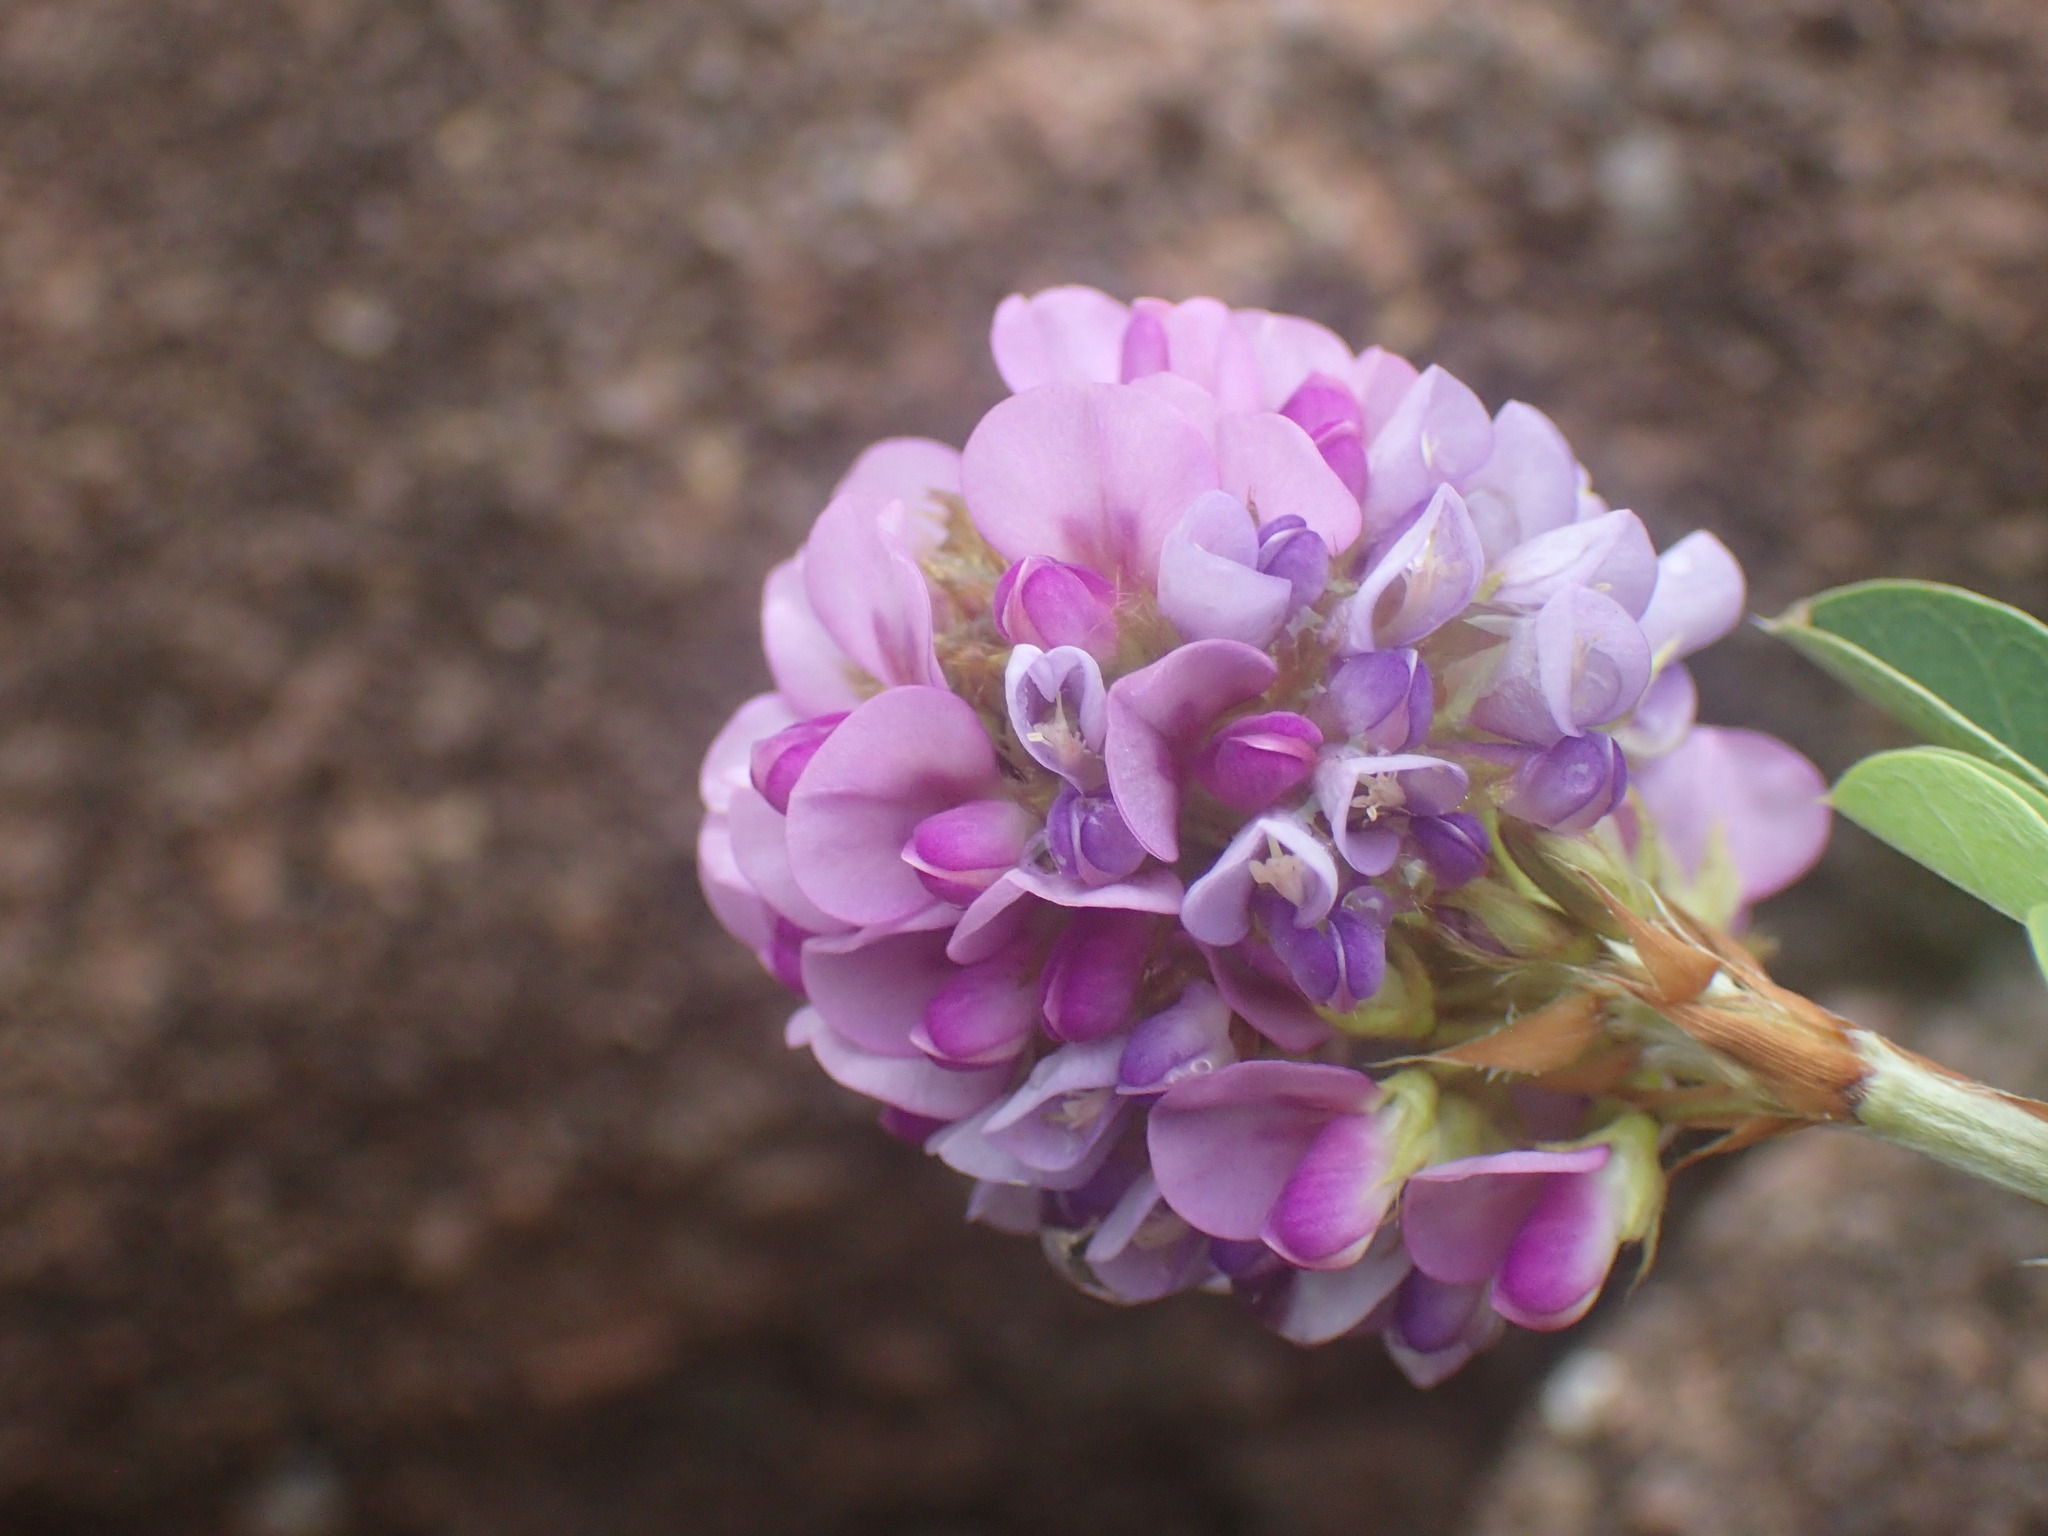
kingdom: Plantae
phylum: Tracheophyta
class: Magnoliopsida
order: Fabales
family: Fabaceae
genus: Grona
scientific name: Grona caffra
